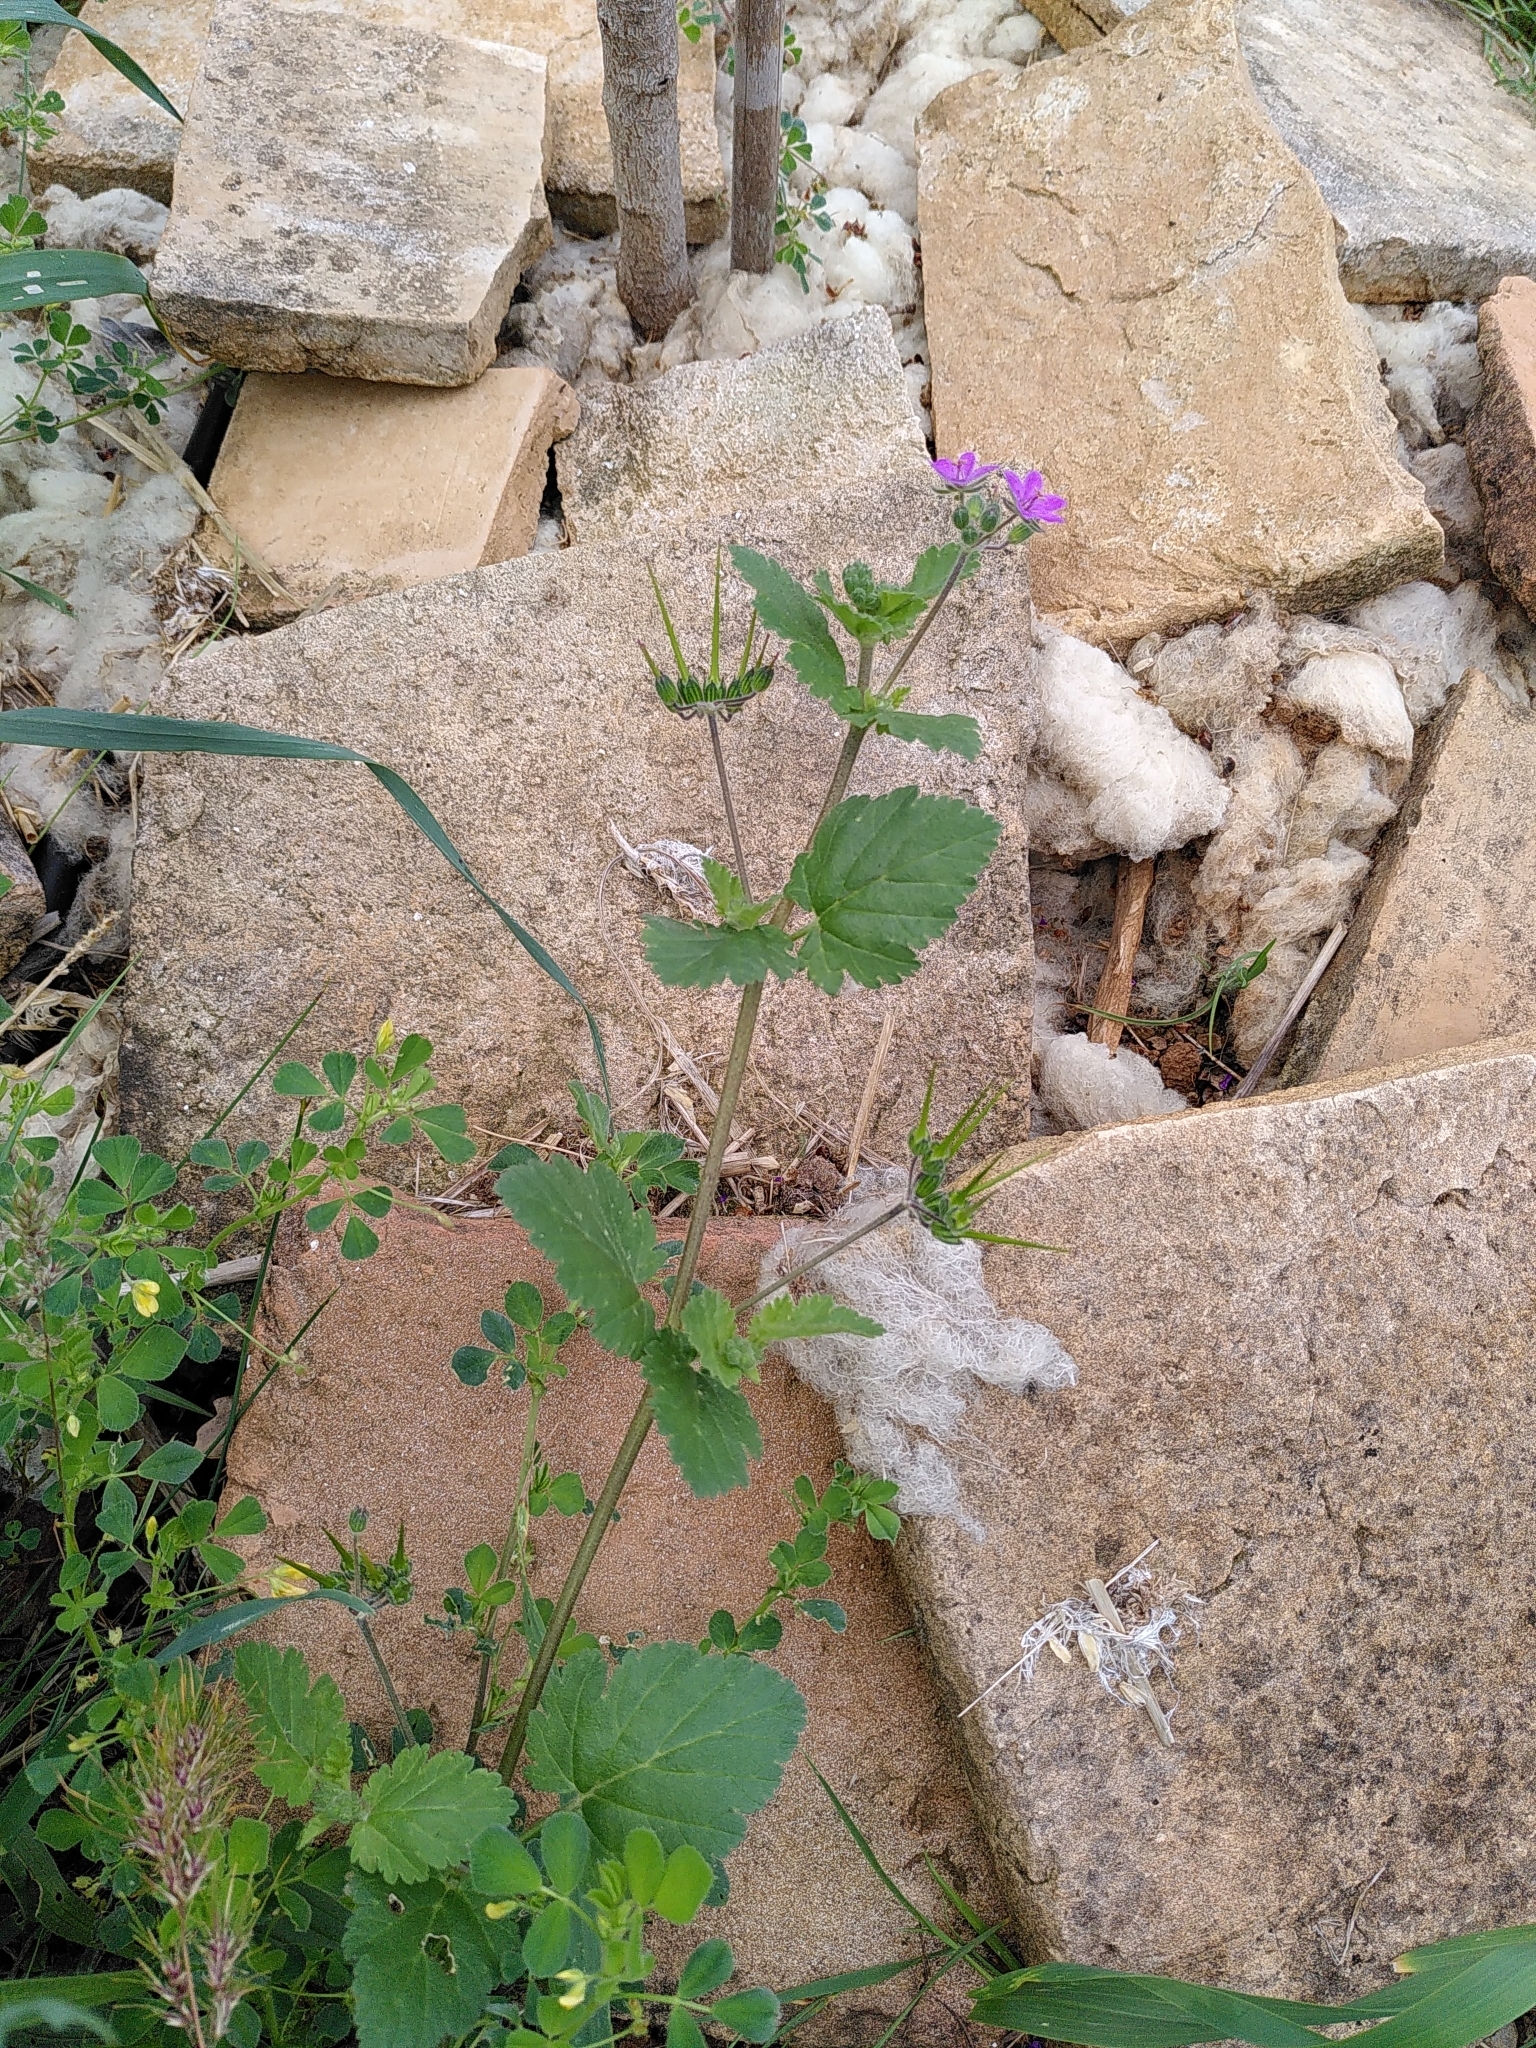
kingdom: Plantae
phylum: Tracheophyta
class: Magnoliopsida
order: Geraniales
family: Geraniaceae
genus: Erodium
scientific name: Erodium malacoides
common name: Soft stork's-bill
